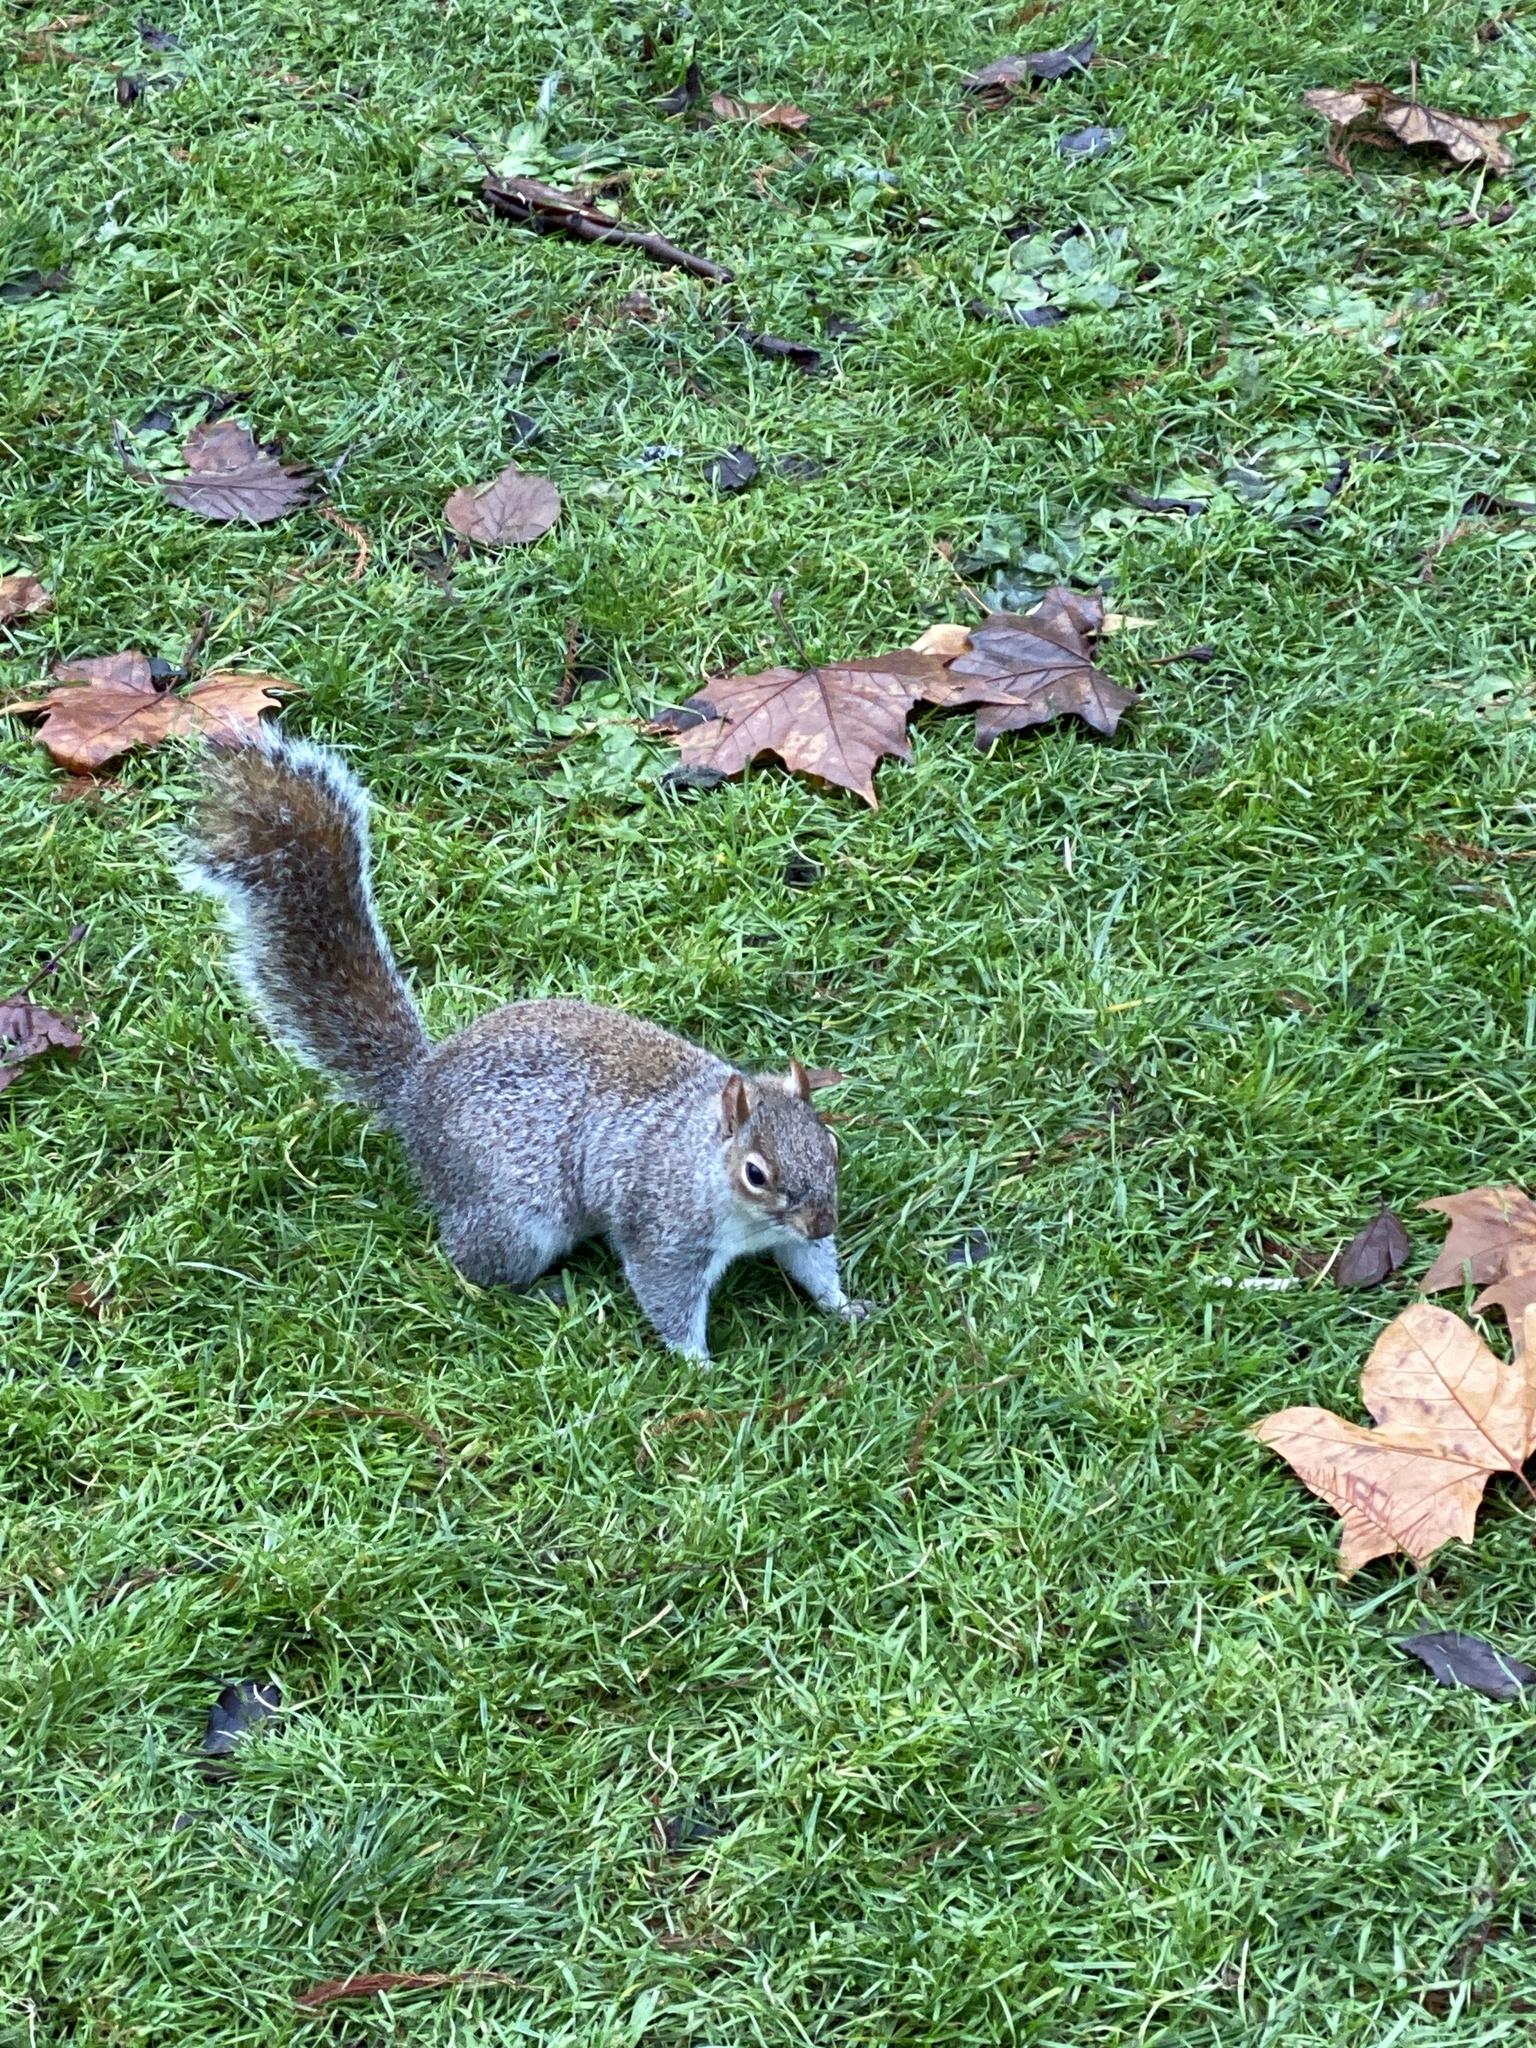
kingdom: Animalia
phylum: Chordata
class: Mammalia
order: Rodentia
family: Sciuridae
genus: Sciurus
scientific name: Sciurus carolinensis
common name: Eastern gray squirrel
